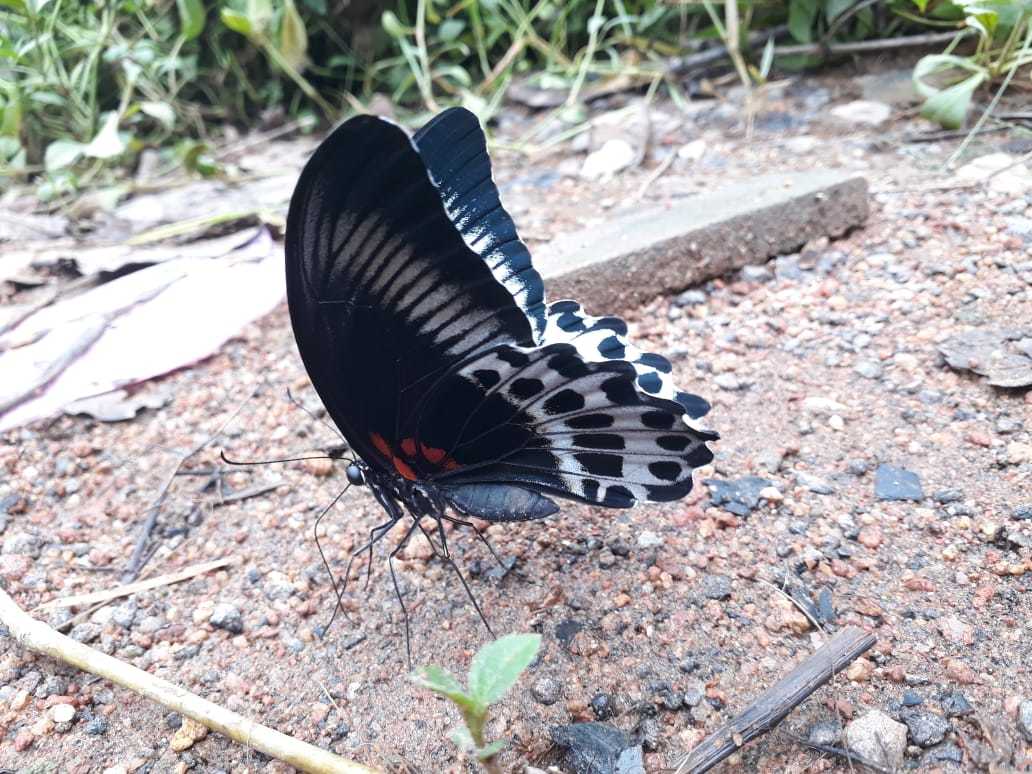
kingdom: Animalia
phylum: Arthropoda
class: Insecta
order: Lepidoptera
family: Papilionidae
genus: Papilio
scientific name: Papilio memnon
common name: Great mormon
